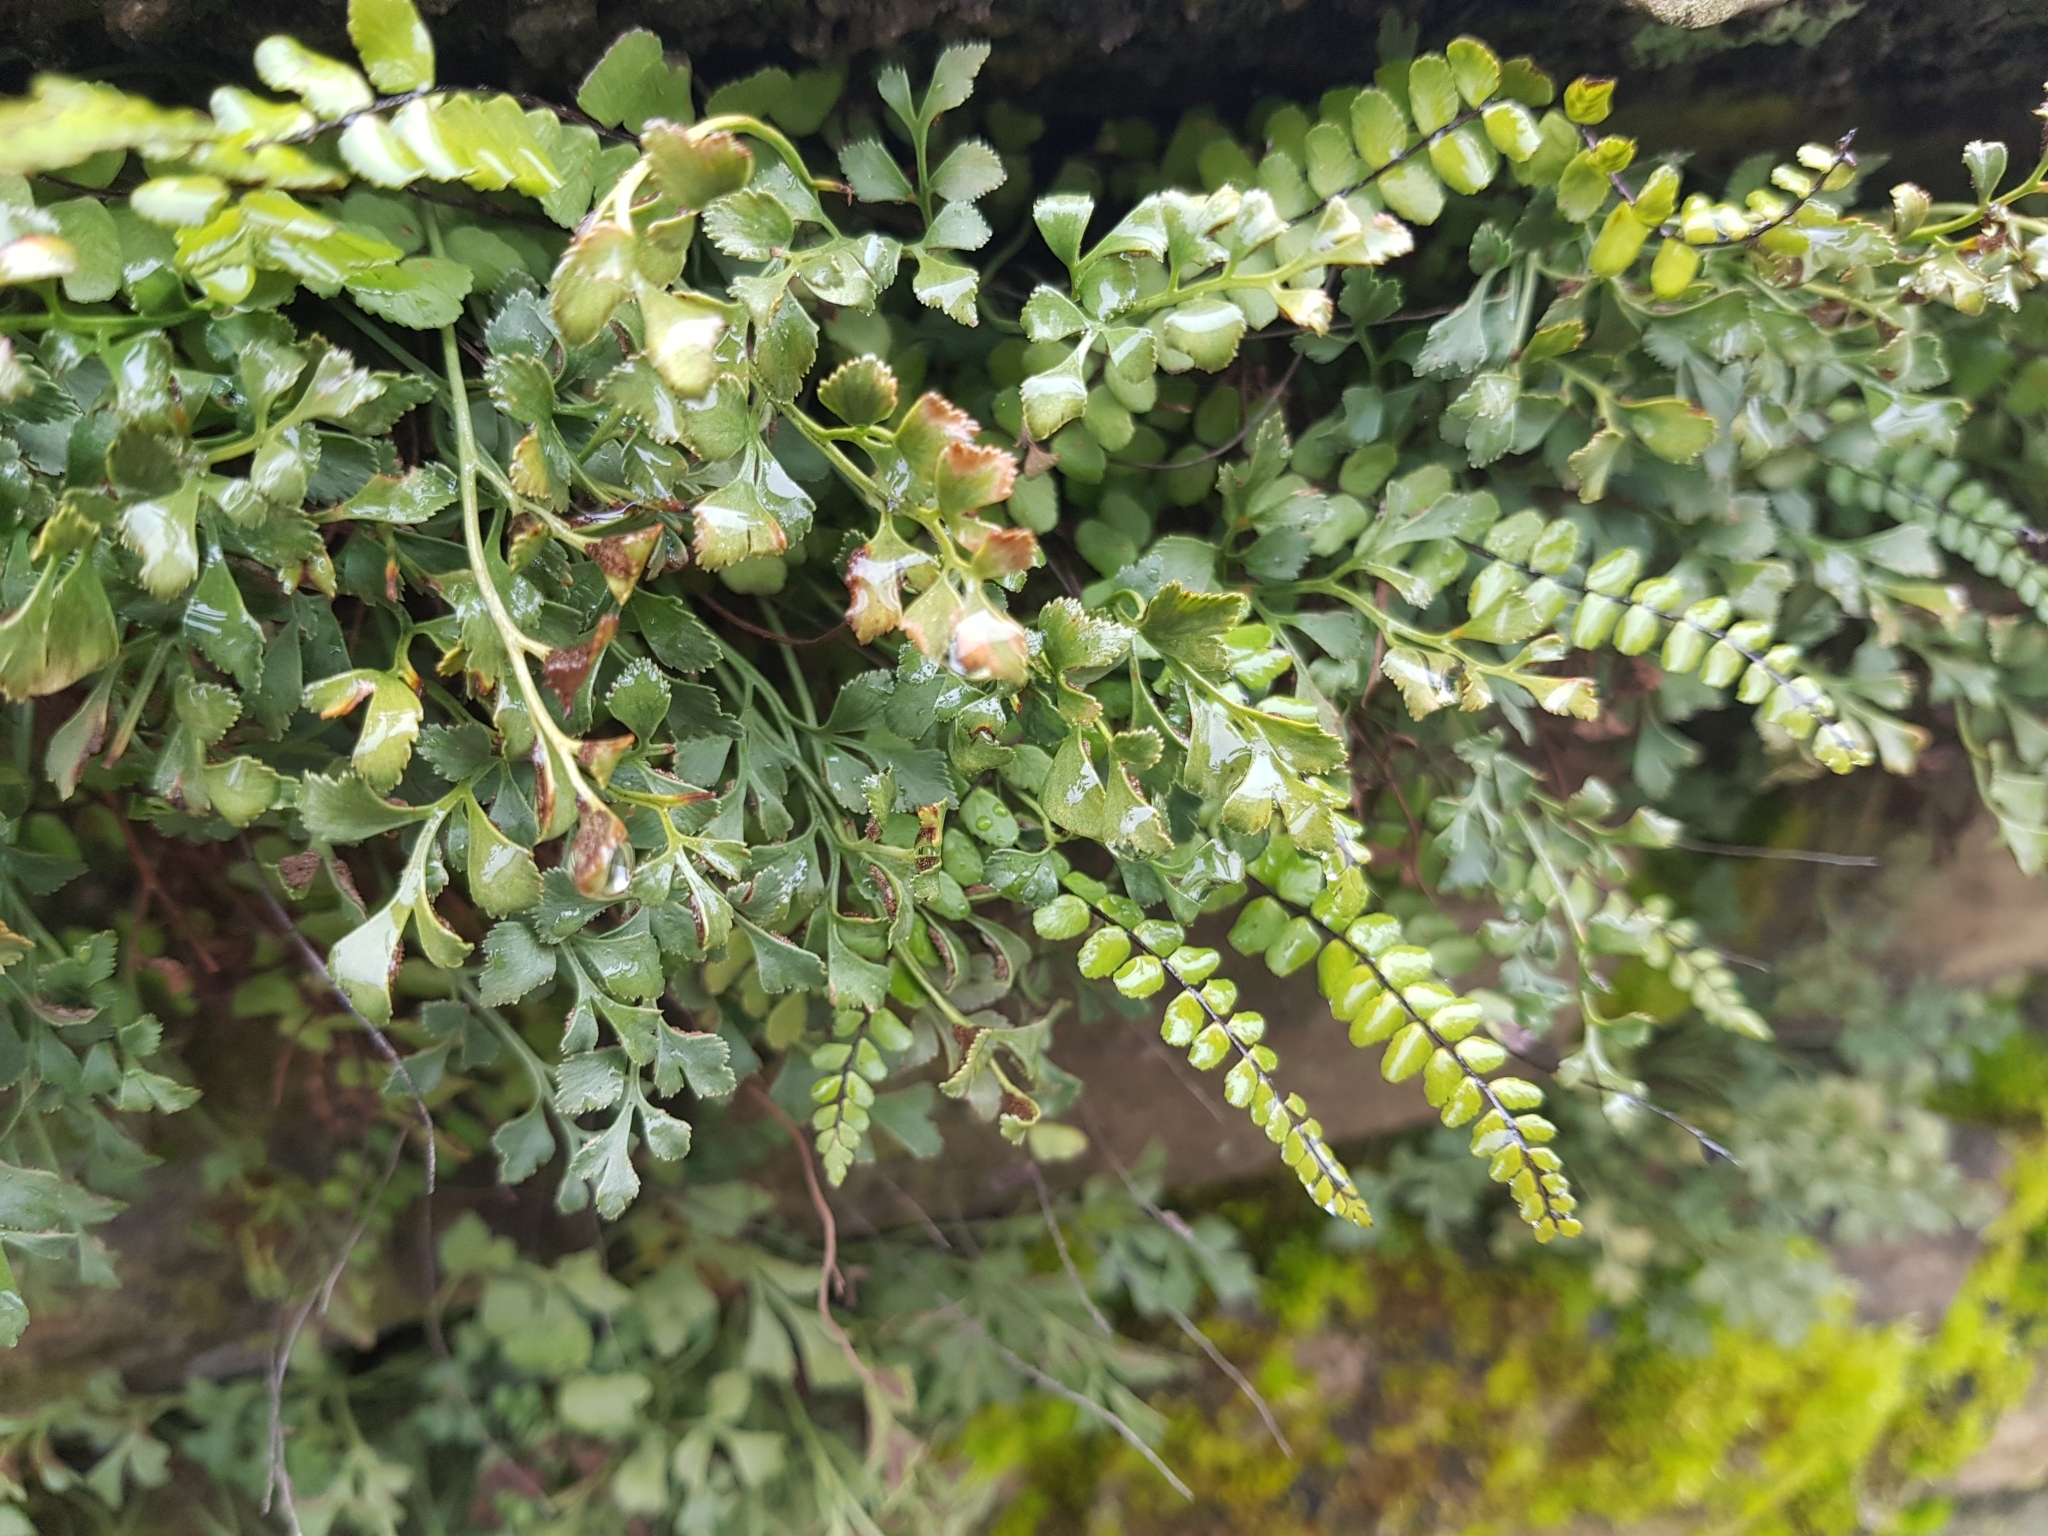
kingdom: Plantae
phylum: Tracheophyta
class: Polypodiopsida
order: Polypodiales
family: Aspleniaceae
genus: Asplenium
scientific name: Asplenium trichomanes
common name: Maidenhair spleenwort
